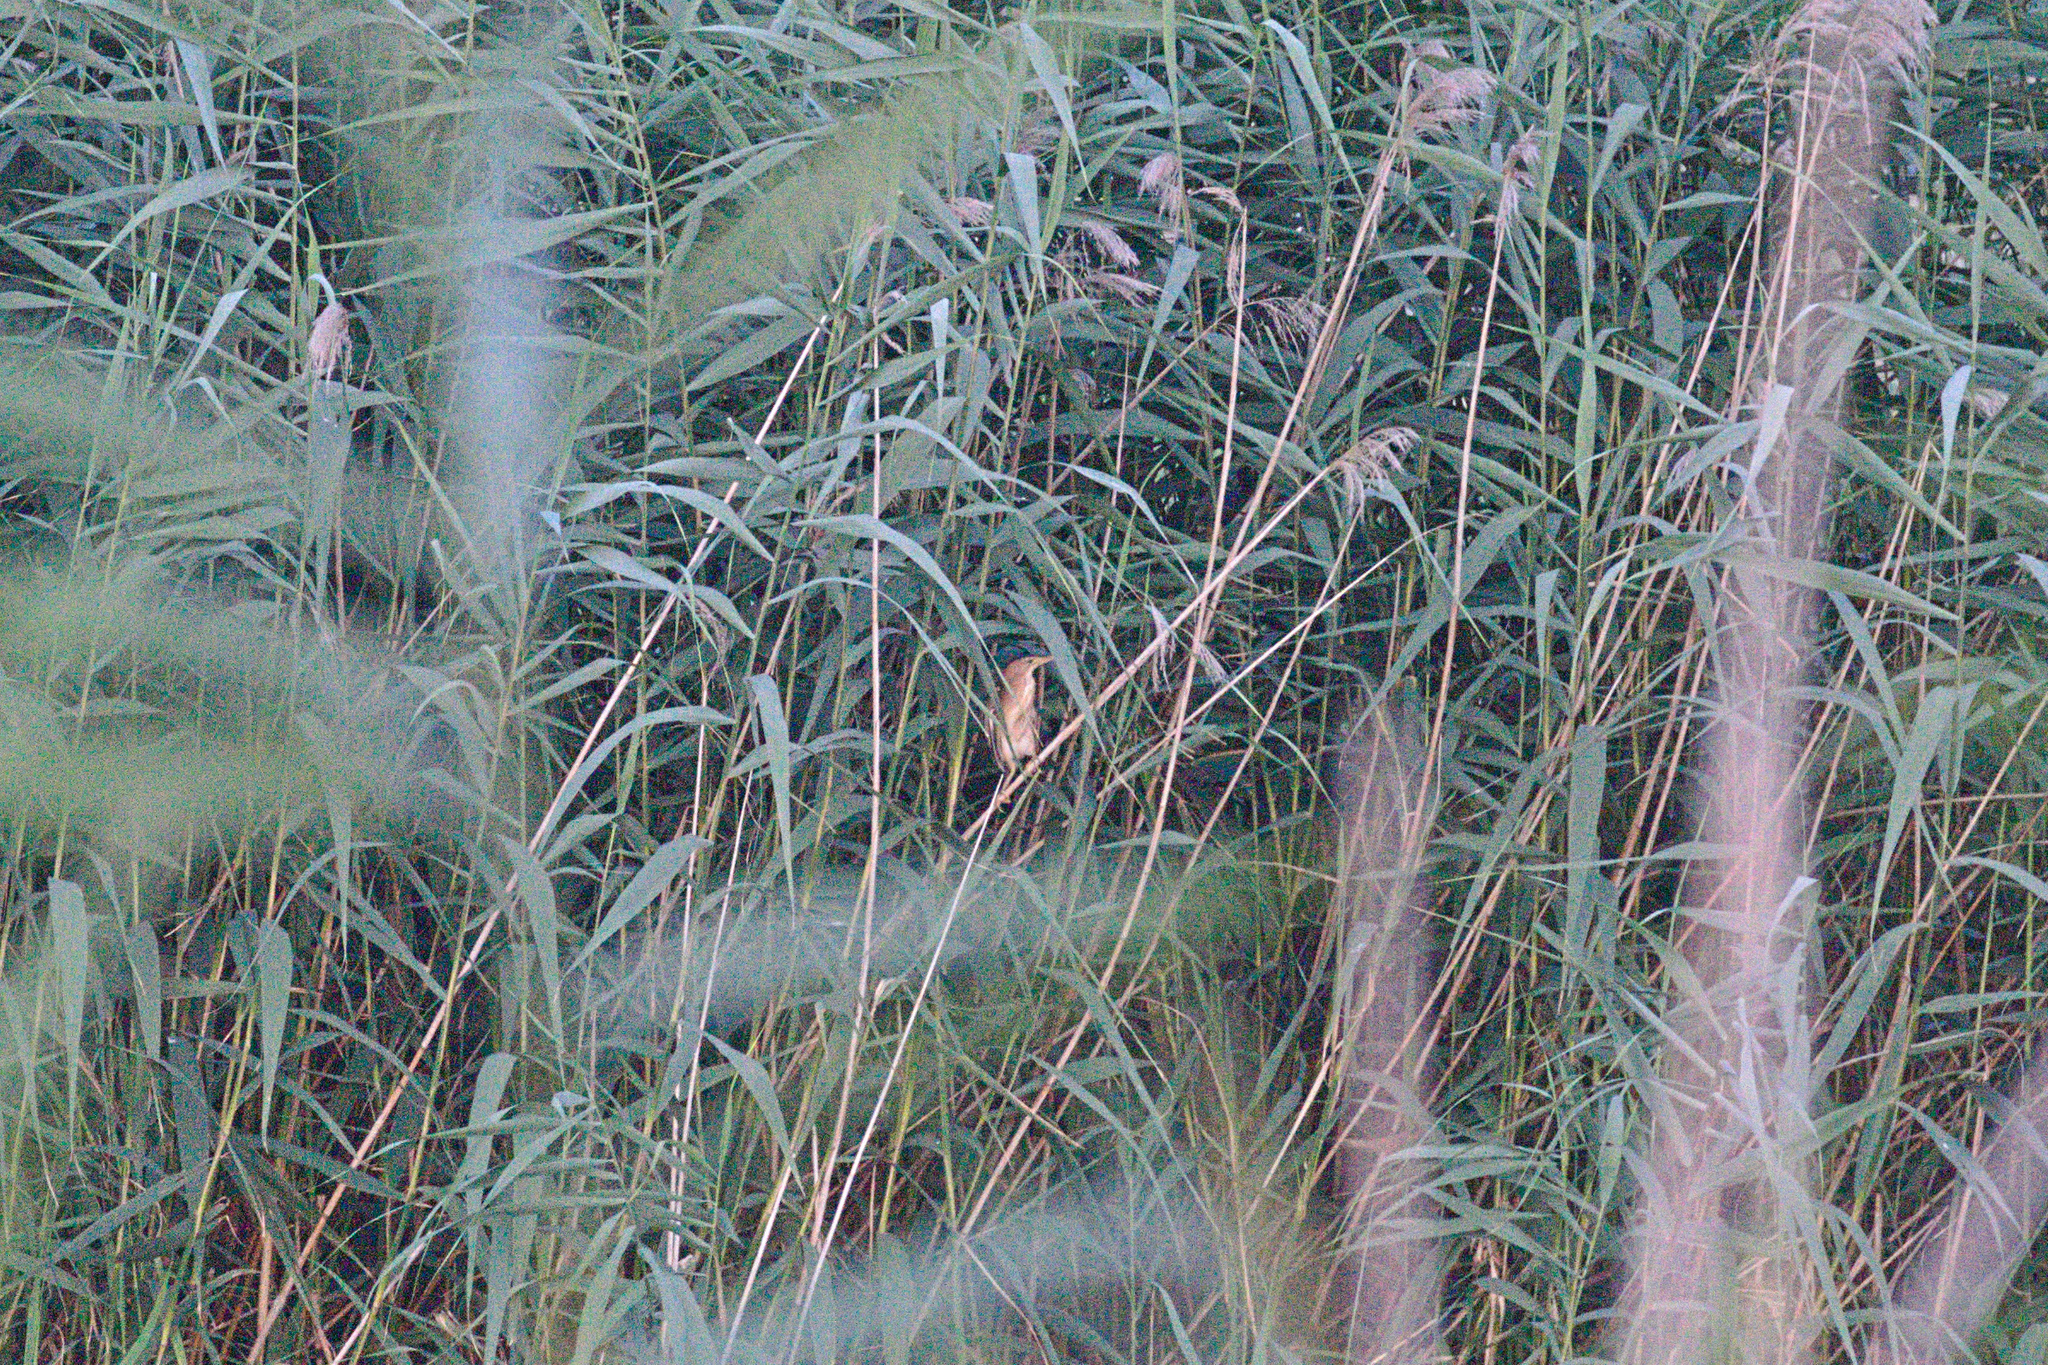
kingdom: Animalia
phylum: Chordata
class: Aves
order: Pelecaniformes
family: Ardeidae
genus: Ixobrychus
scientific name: Ixobrychus minutus
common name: Little bittern
